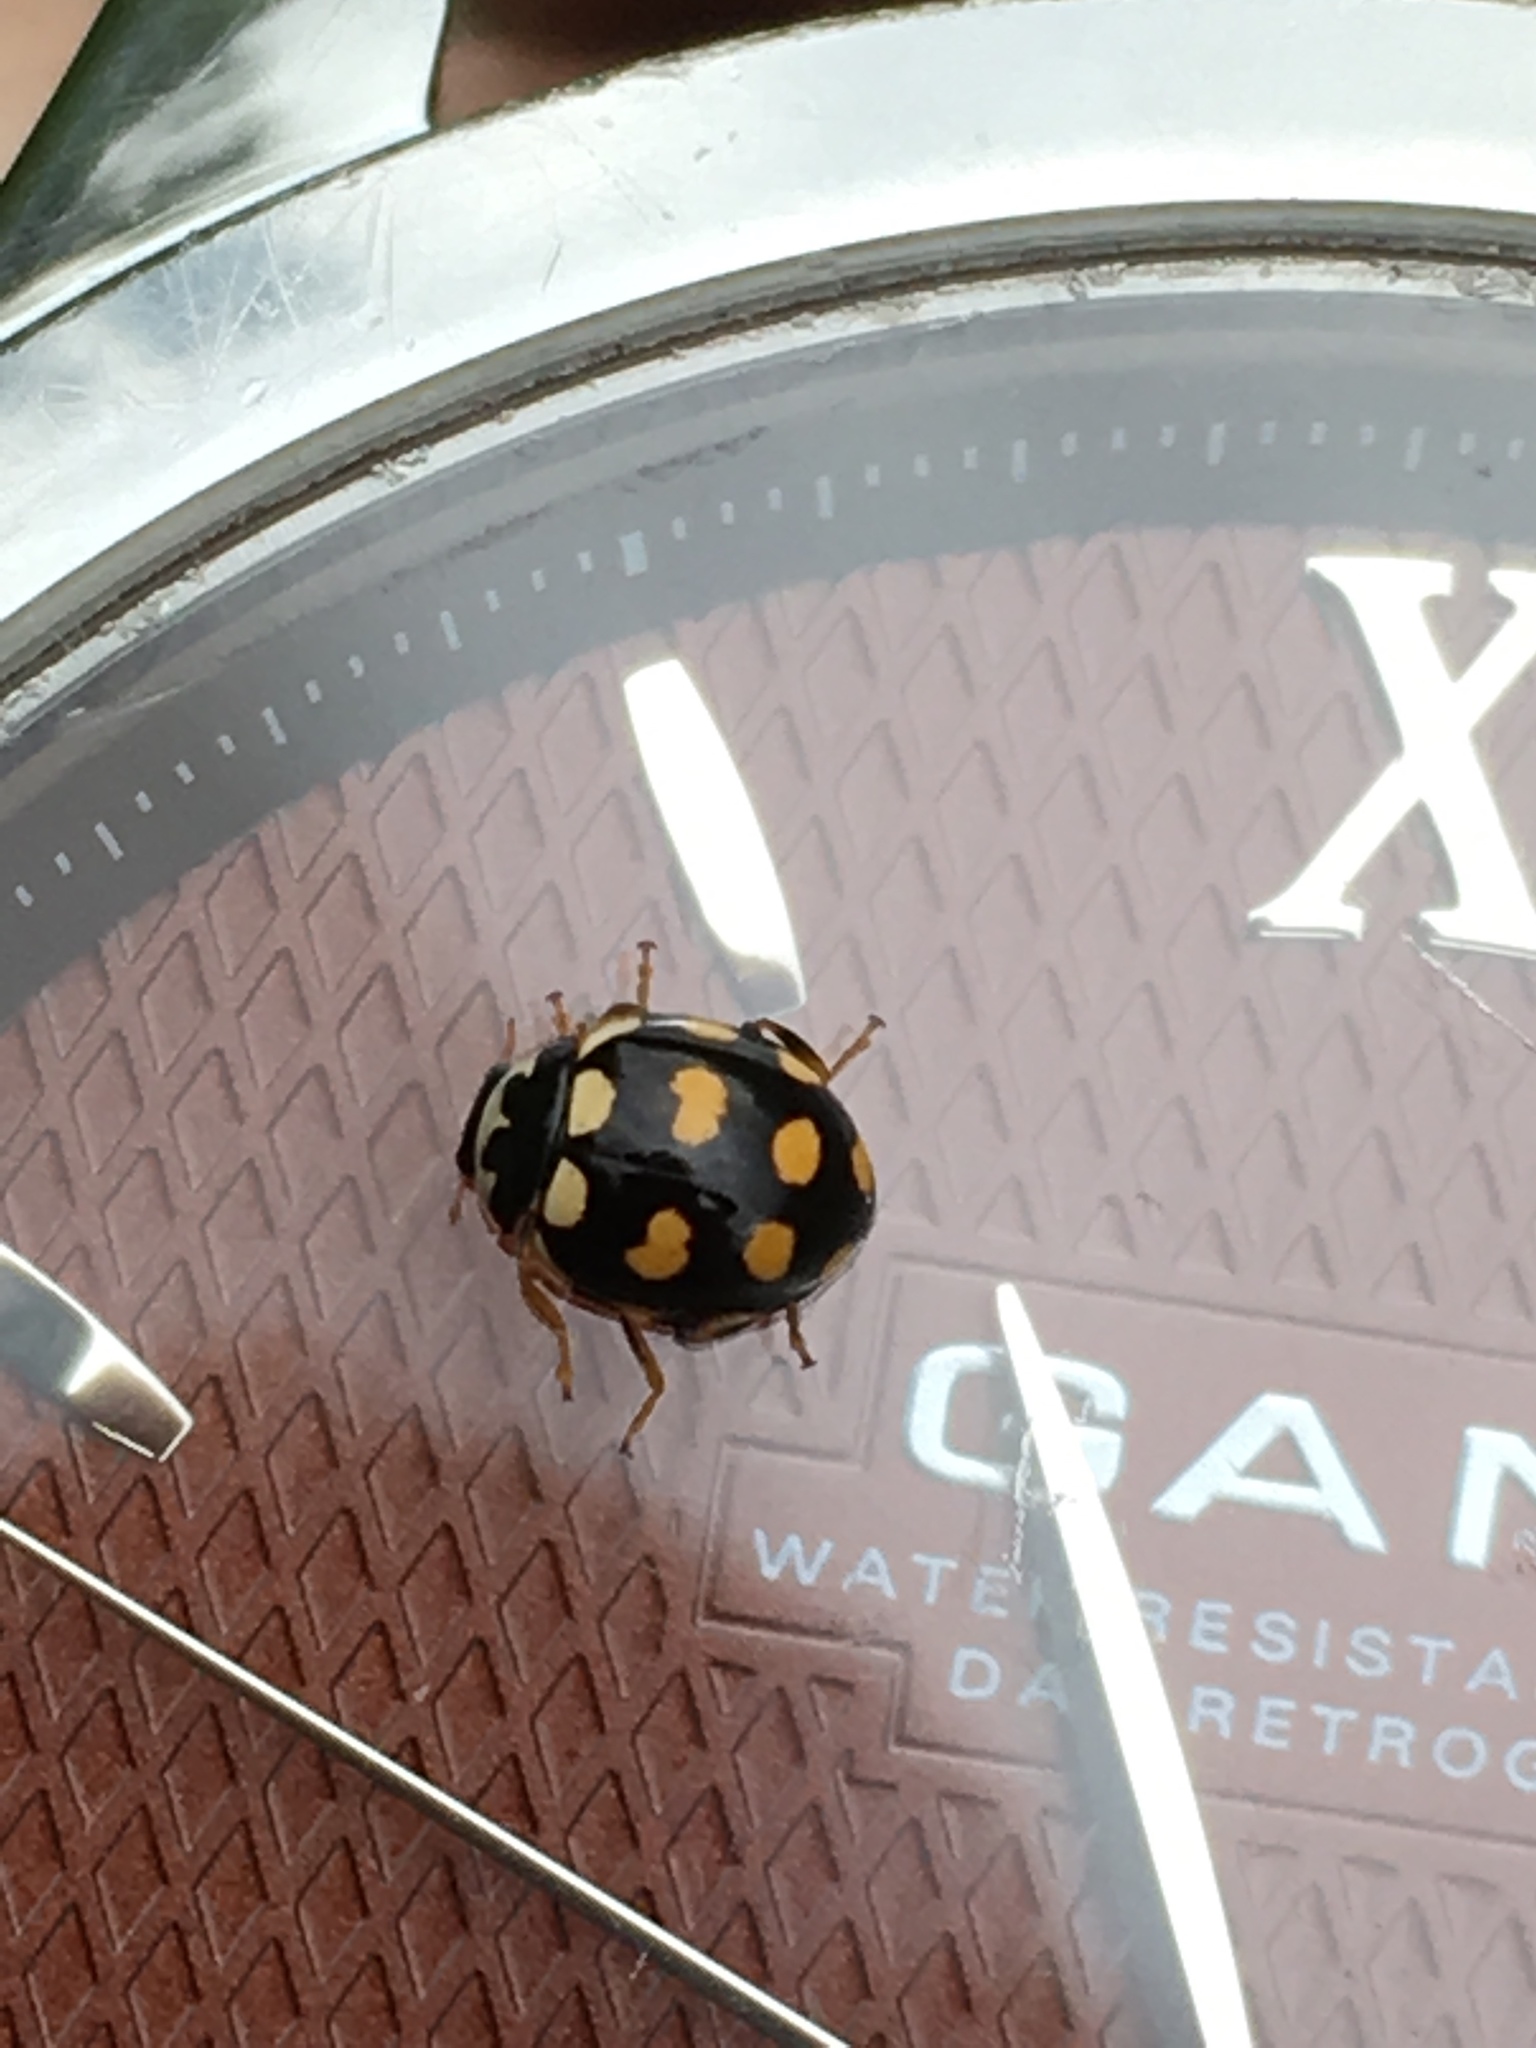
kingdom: Animalia
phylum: Arthropoda
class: Insecta
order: Coleoptera
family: Coccinellidae
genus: Coccinula
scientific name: Coccinula quatuordecimpustulata
